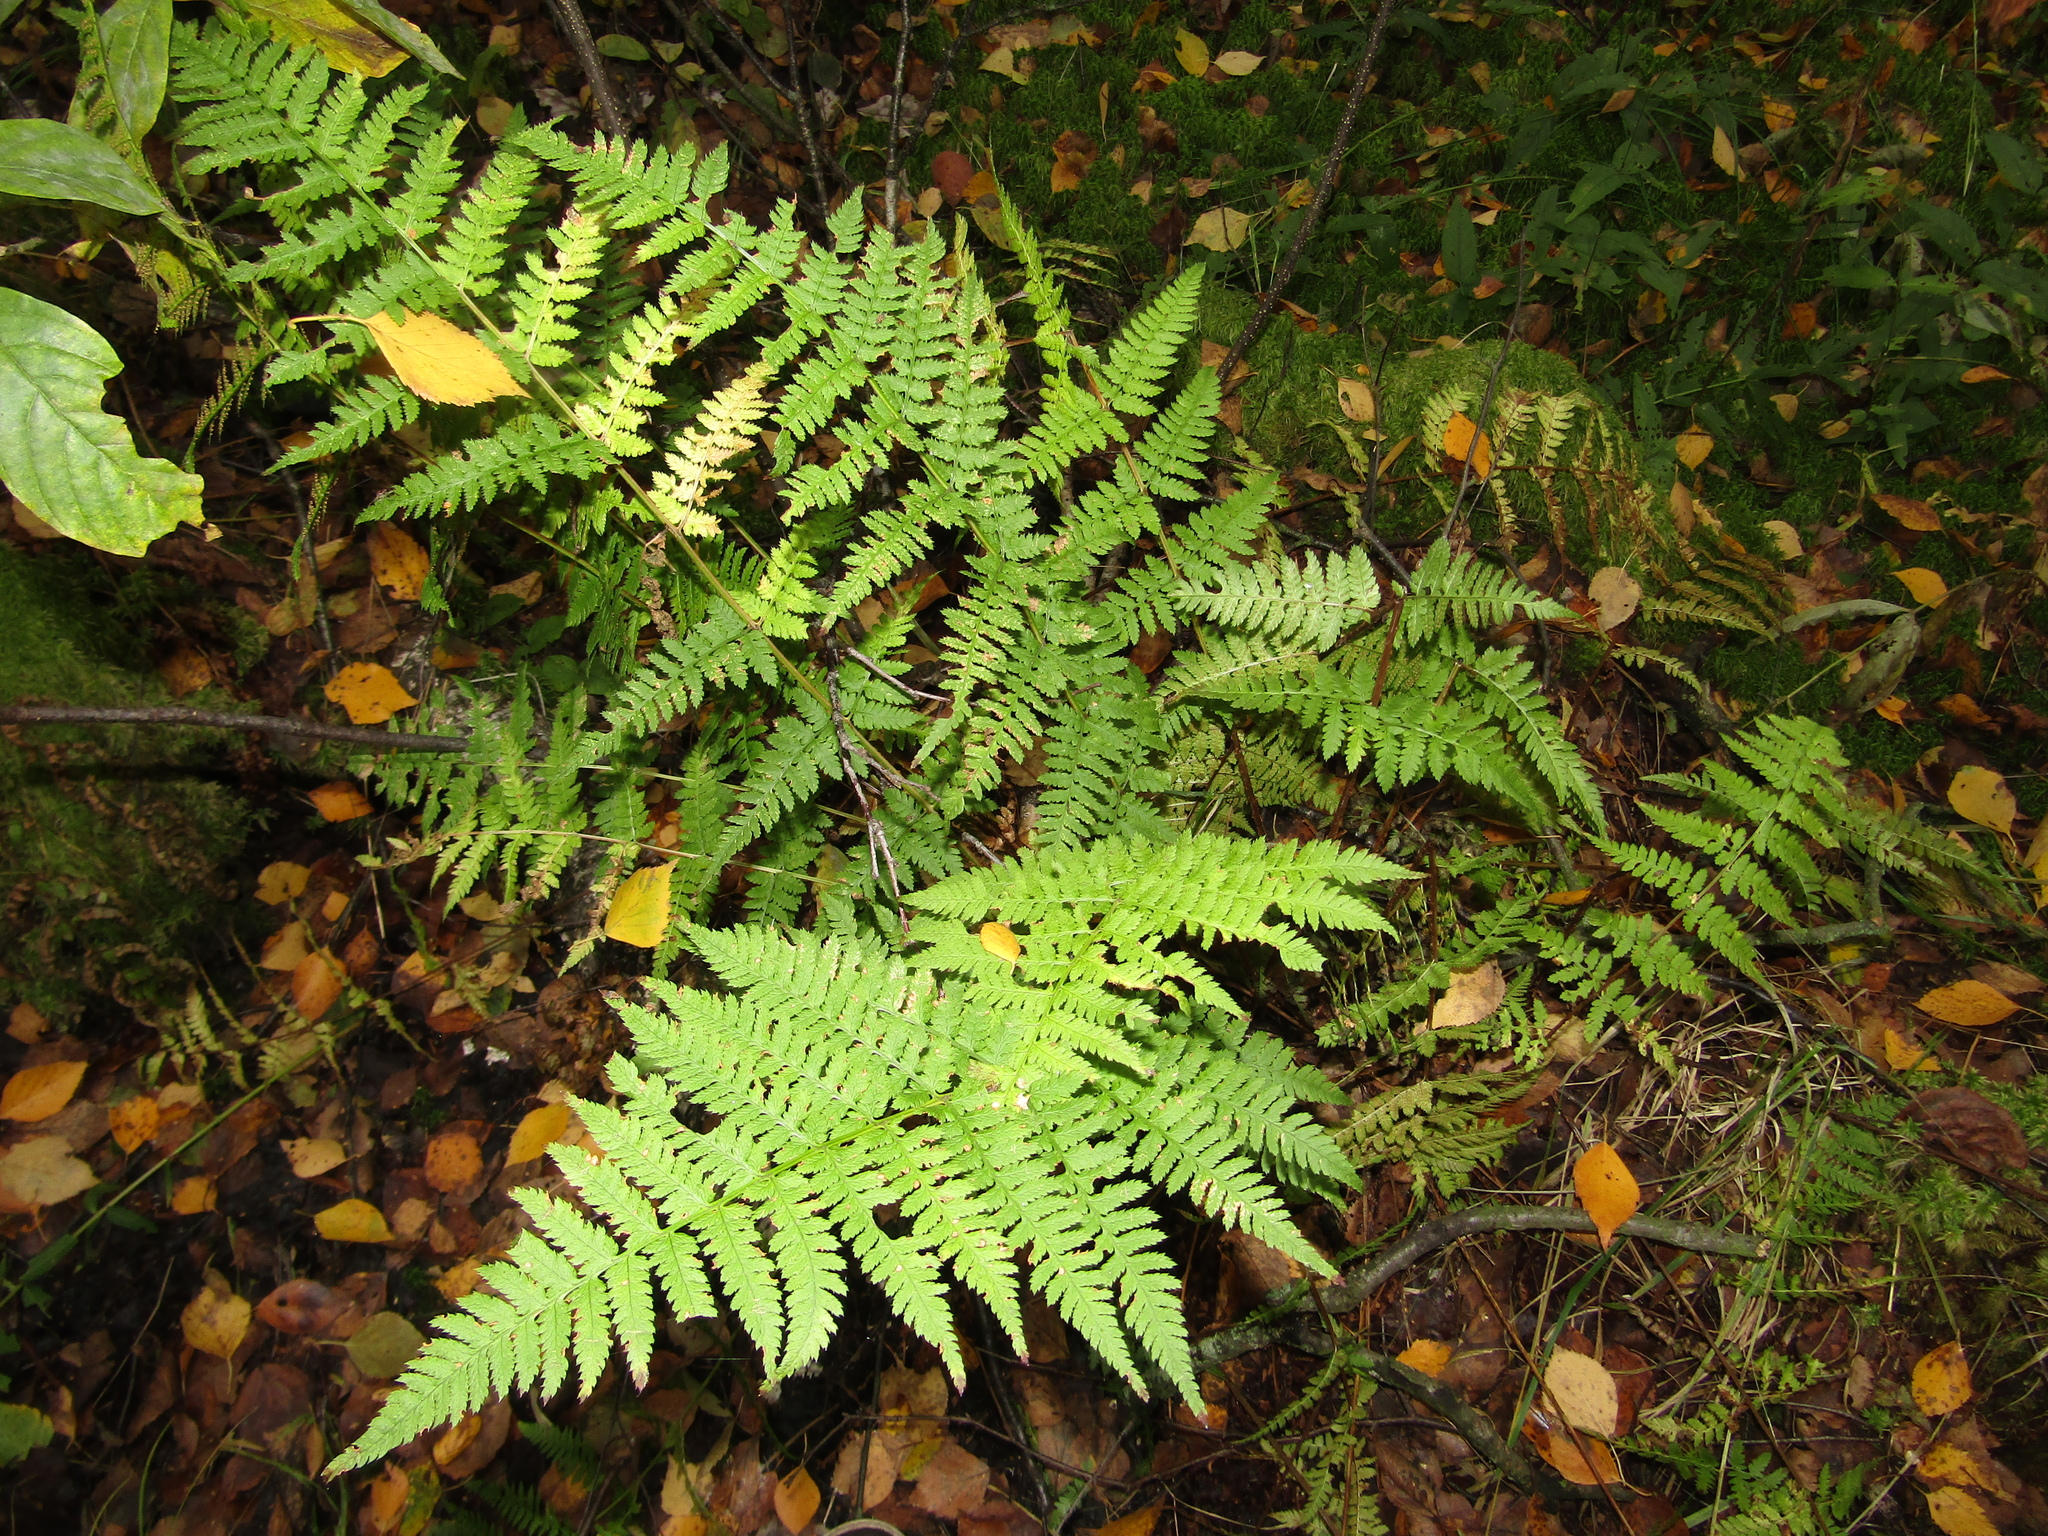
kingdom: Plantae
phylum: Tracheophyta
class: Polypodiopsida
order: Polypodiales
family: Dryopteridaceae
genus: Dryopteris
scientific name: Dryopteris carthusiana
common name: Narrow buckler-fern
